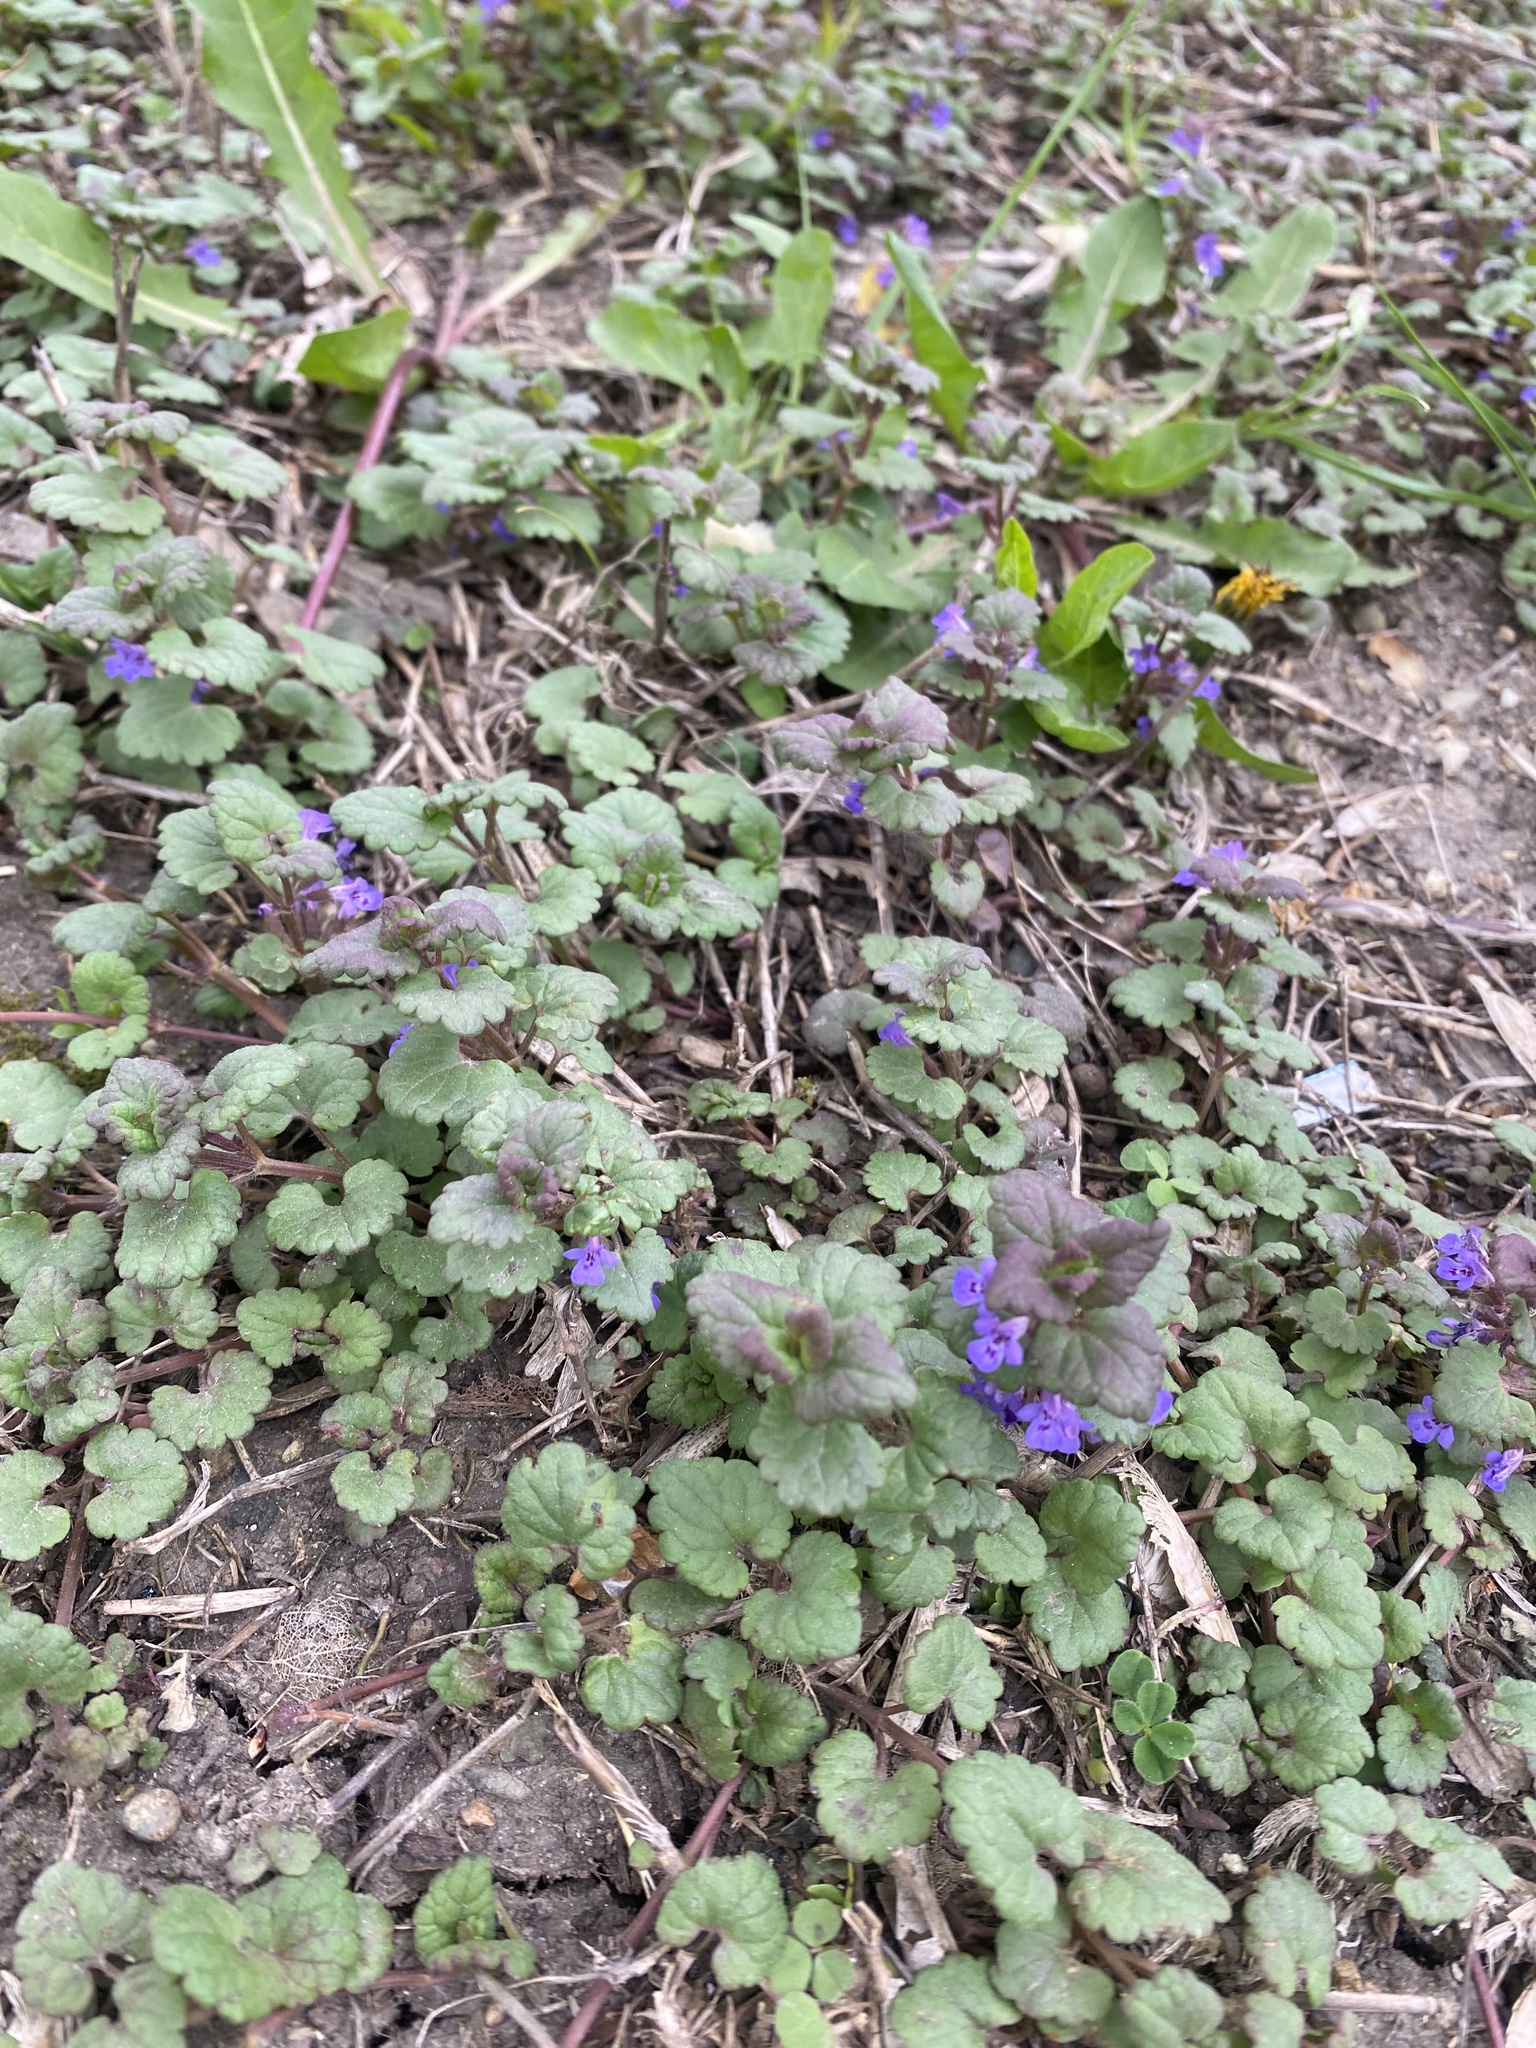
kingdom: Plantae
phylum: Tracheophyta
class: Magnoliopsida
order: Lamiales
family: Lamiaceae
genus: Glechoma
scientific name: Glechoma hederacea
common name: Ground ivy
